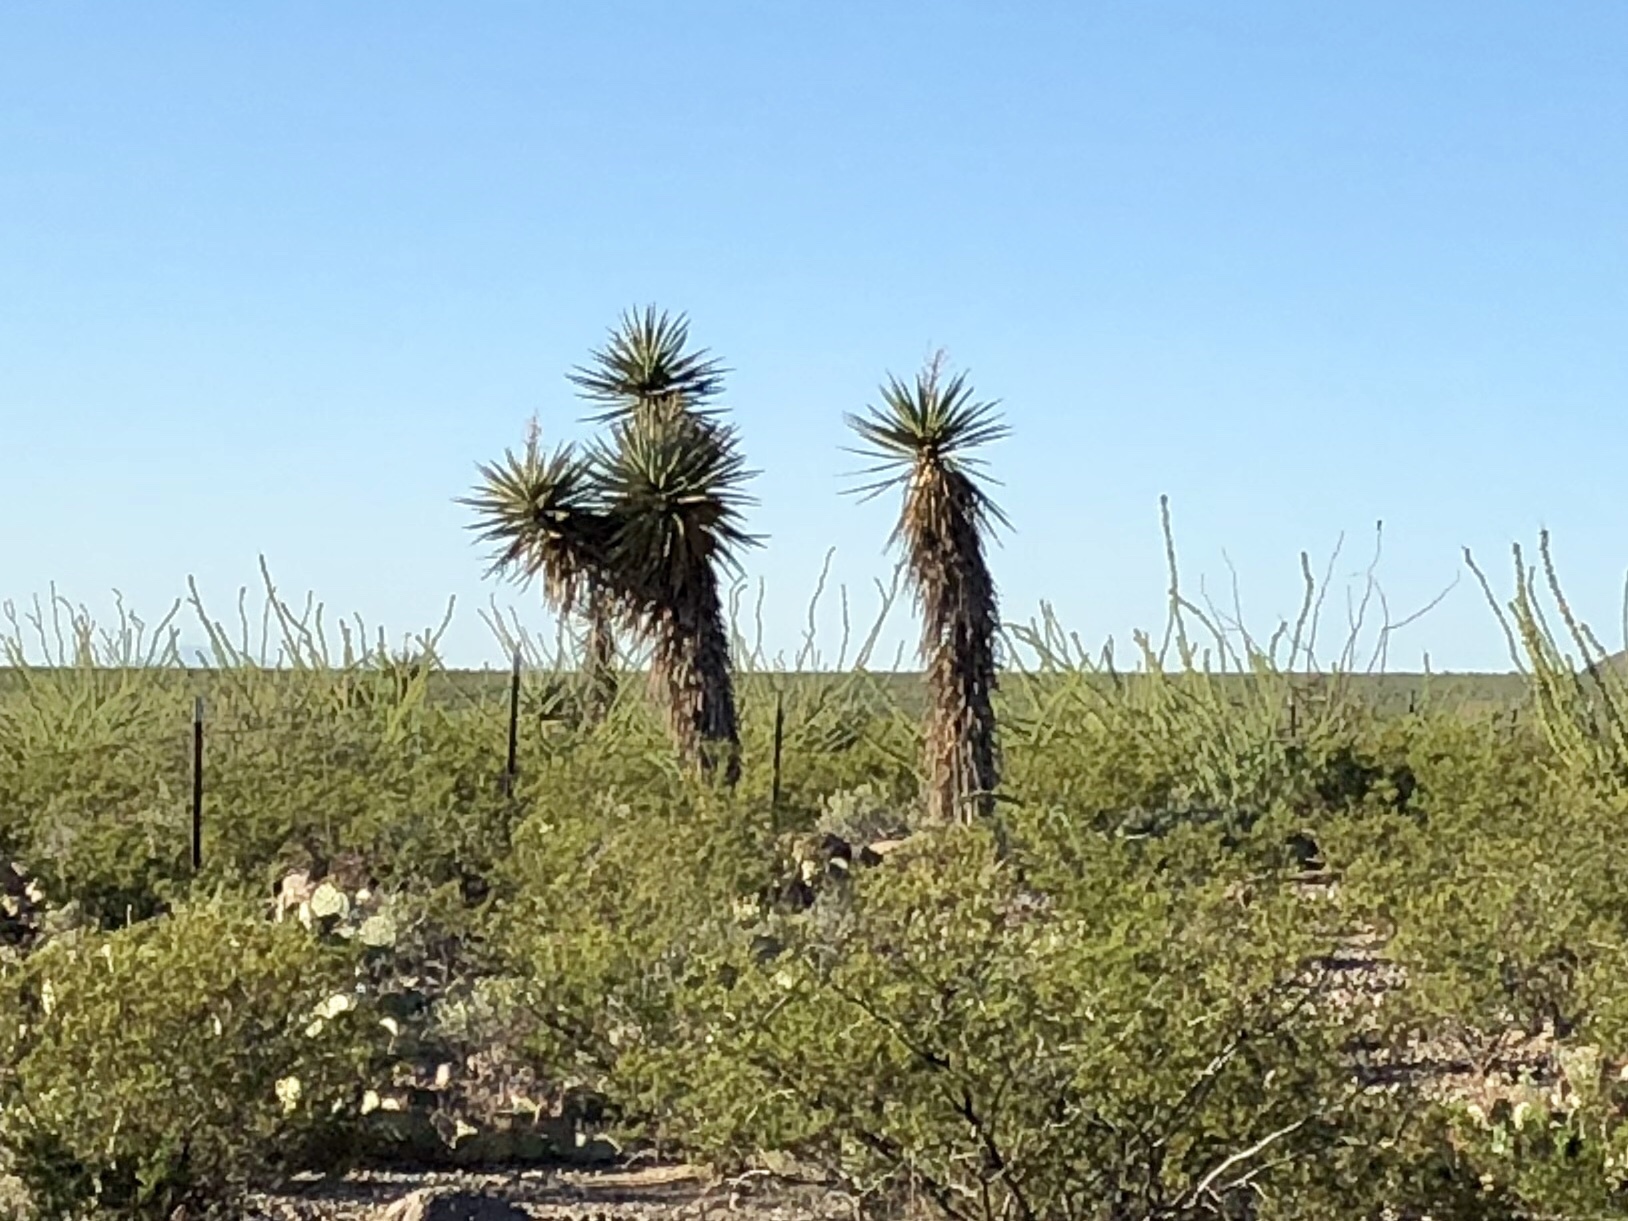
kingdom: Plantae
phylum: Tracheophyta
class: Liliopsida
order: Asparagales
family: Asparagaceae
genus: Yucca
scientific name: Yucca treculiana
